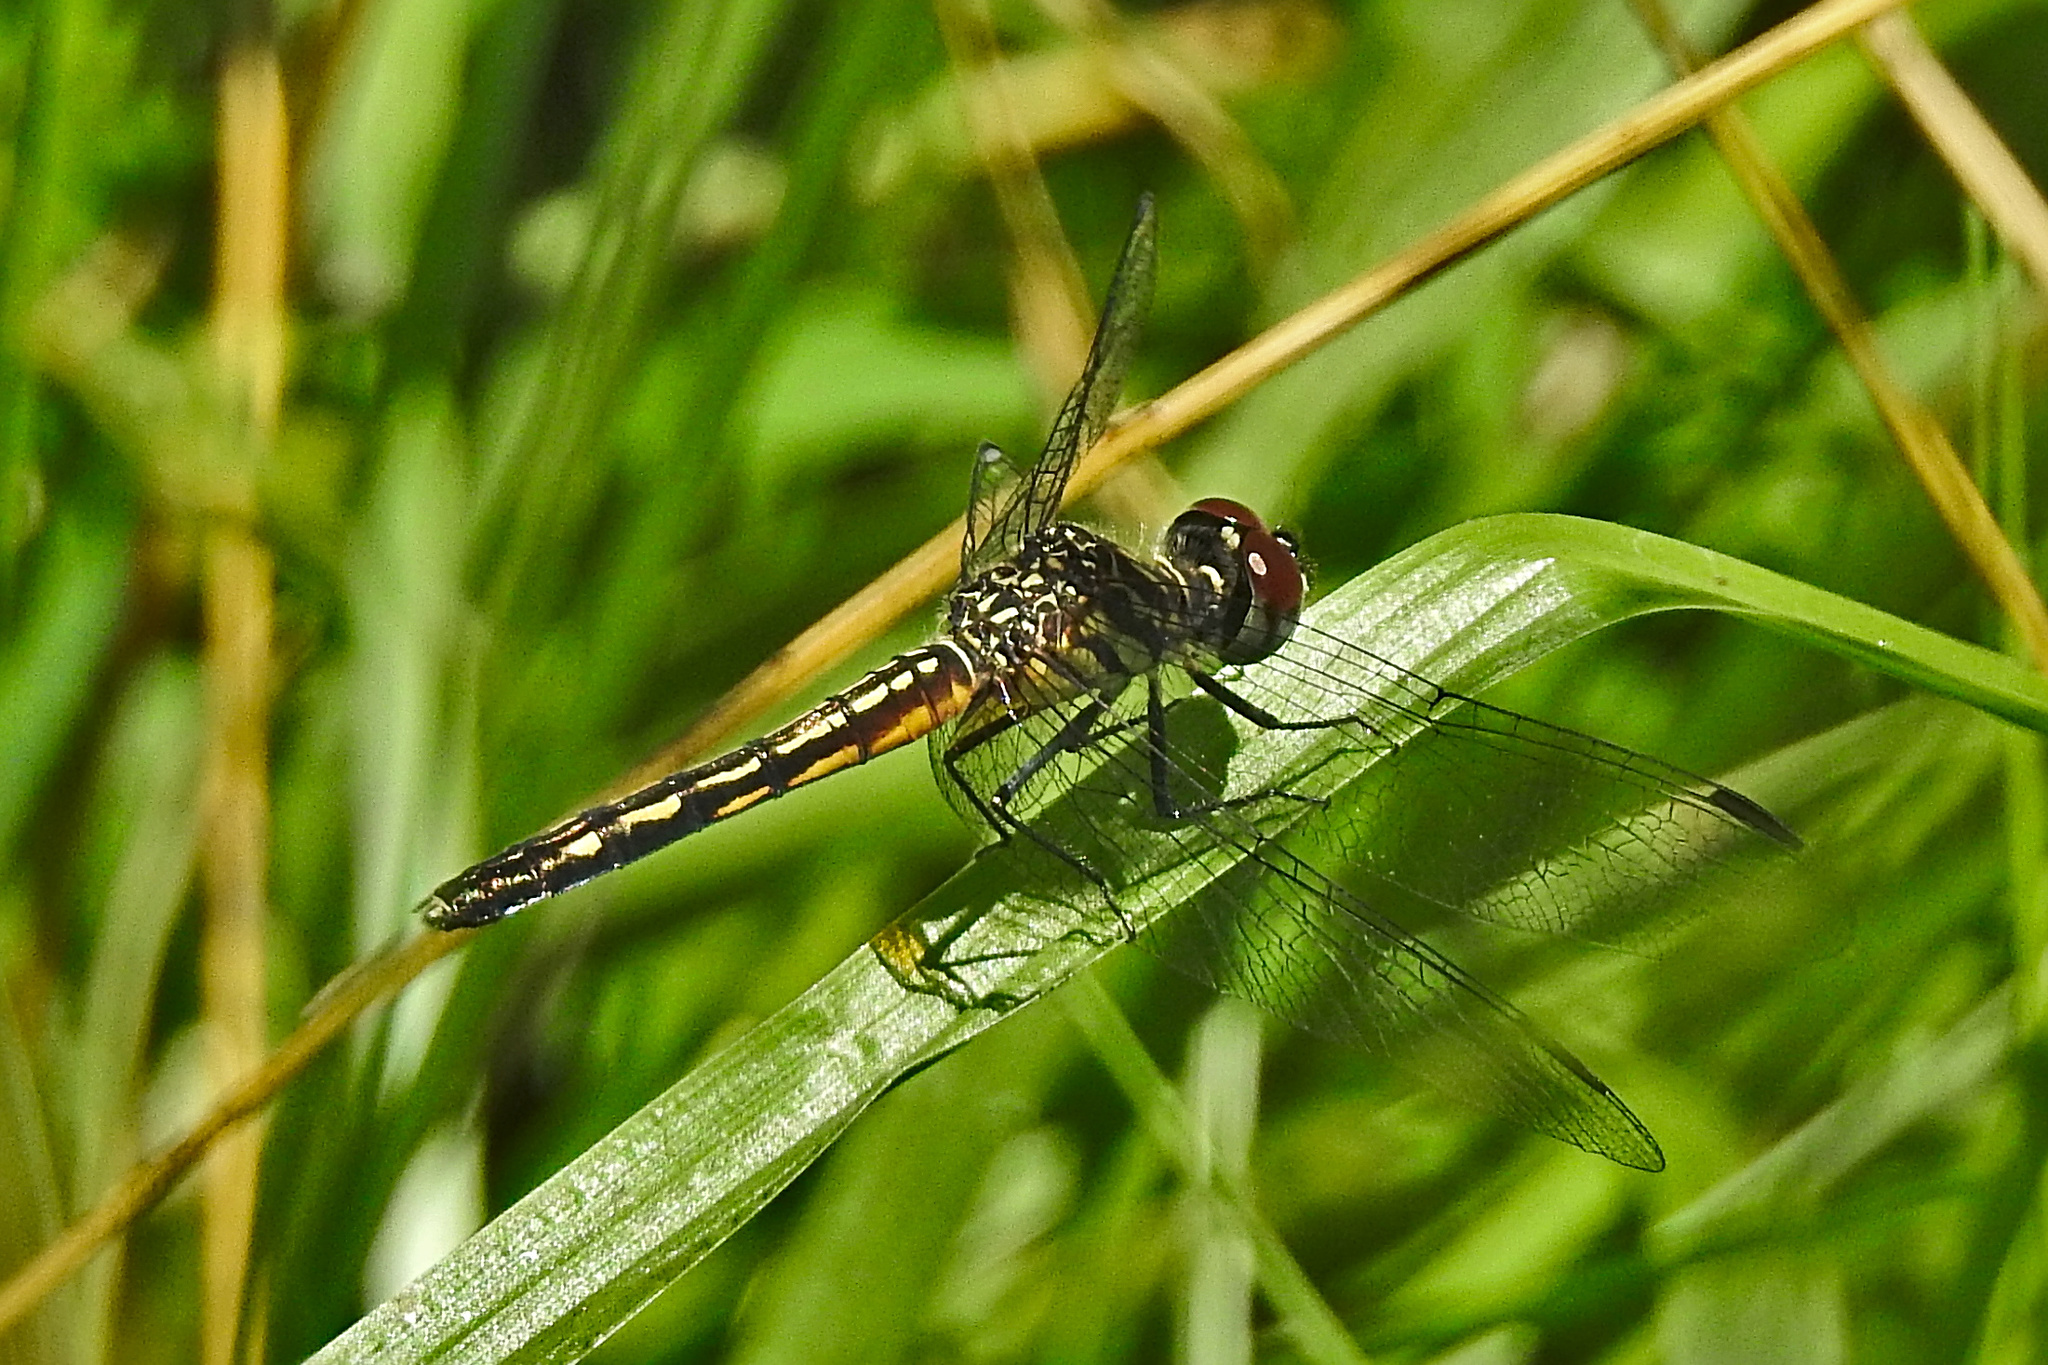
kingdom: Animalia
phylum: Arthropoda
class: Insecta
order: Odonata
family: Libellulidae
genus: Pachydiplax
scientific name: Pachydiplax longipennis
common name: Blue dasher
